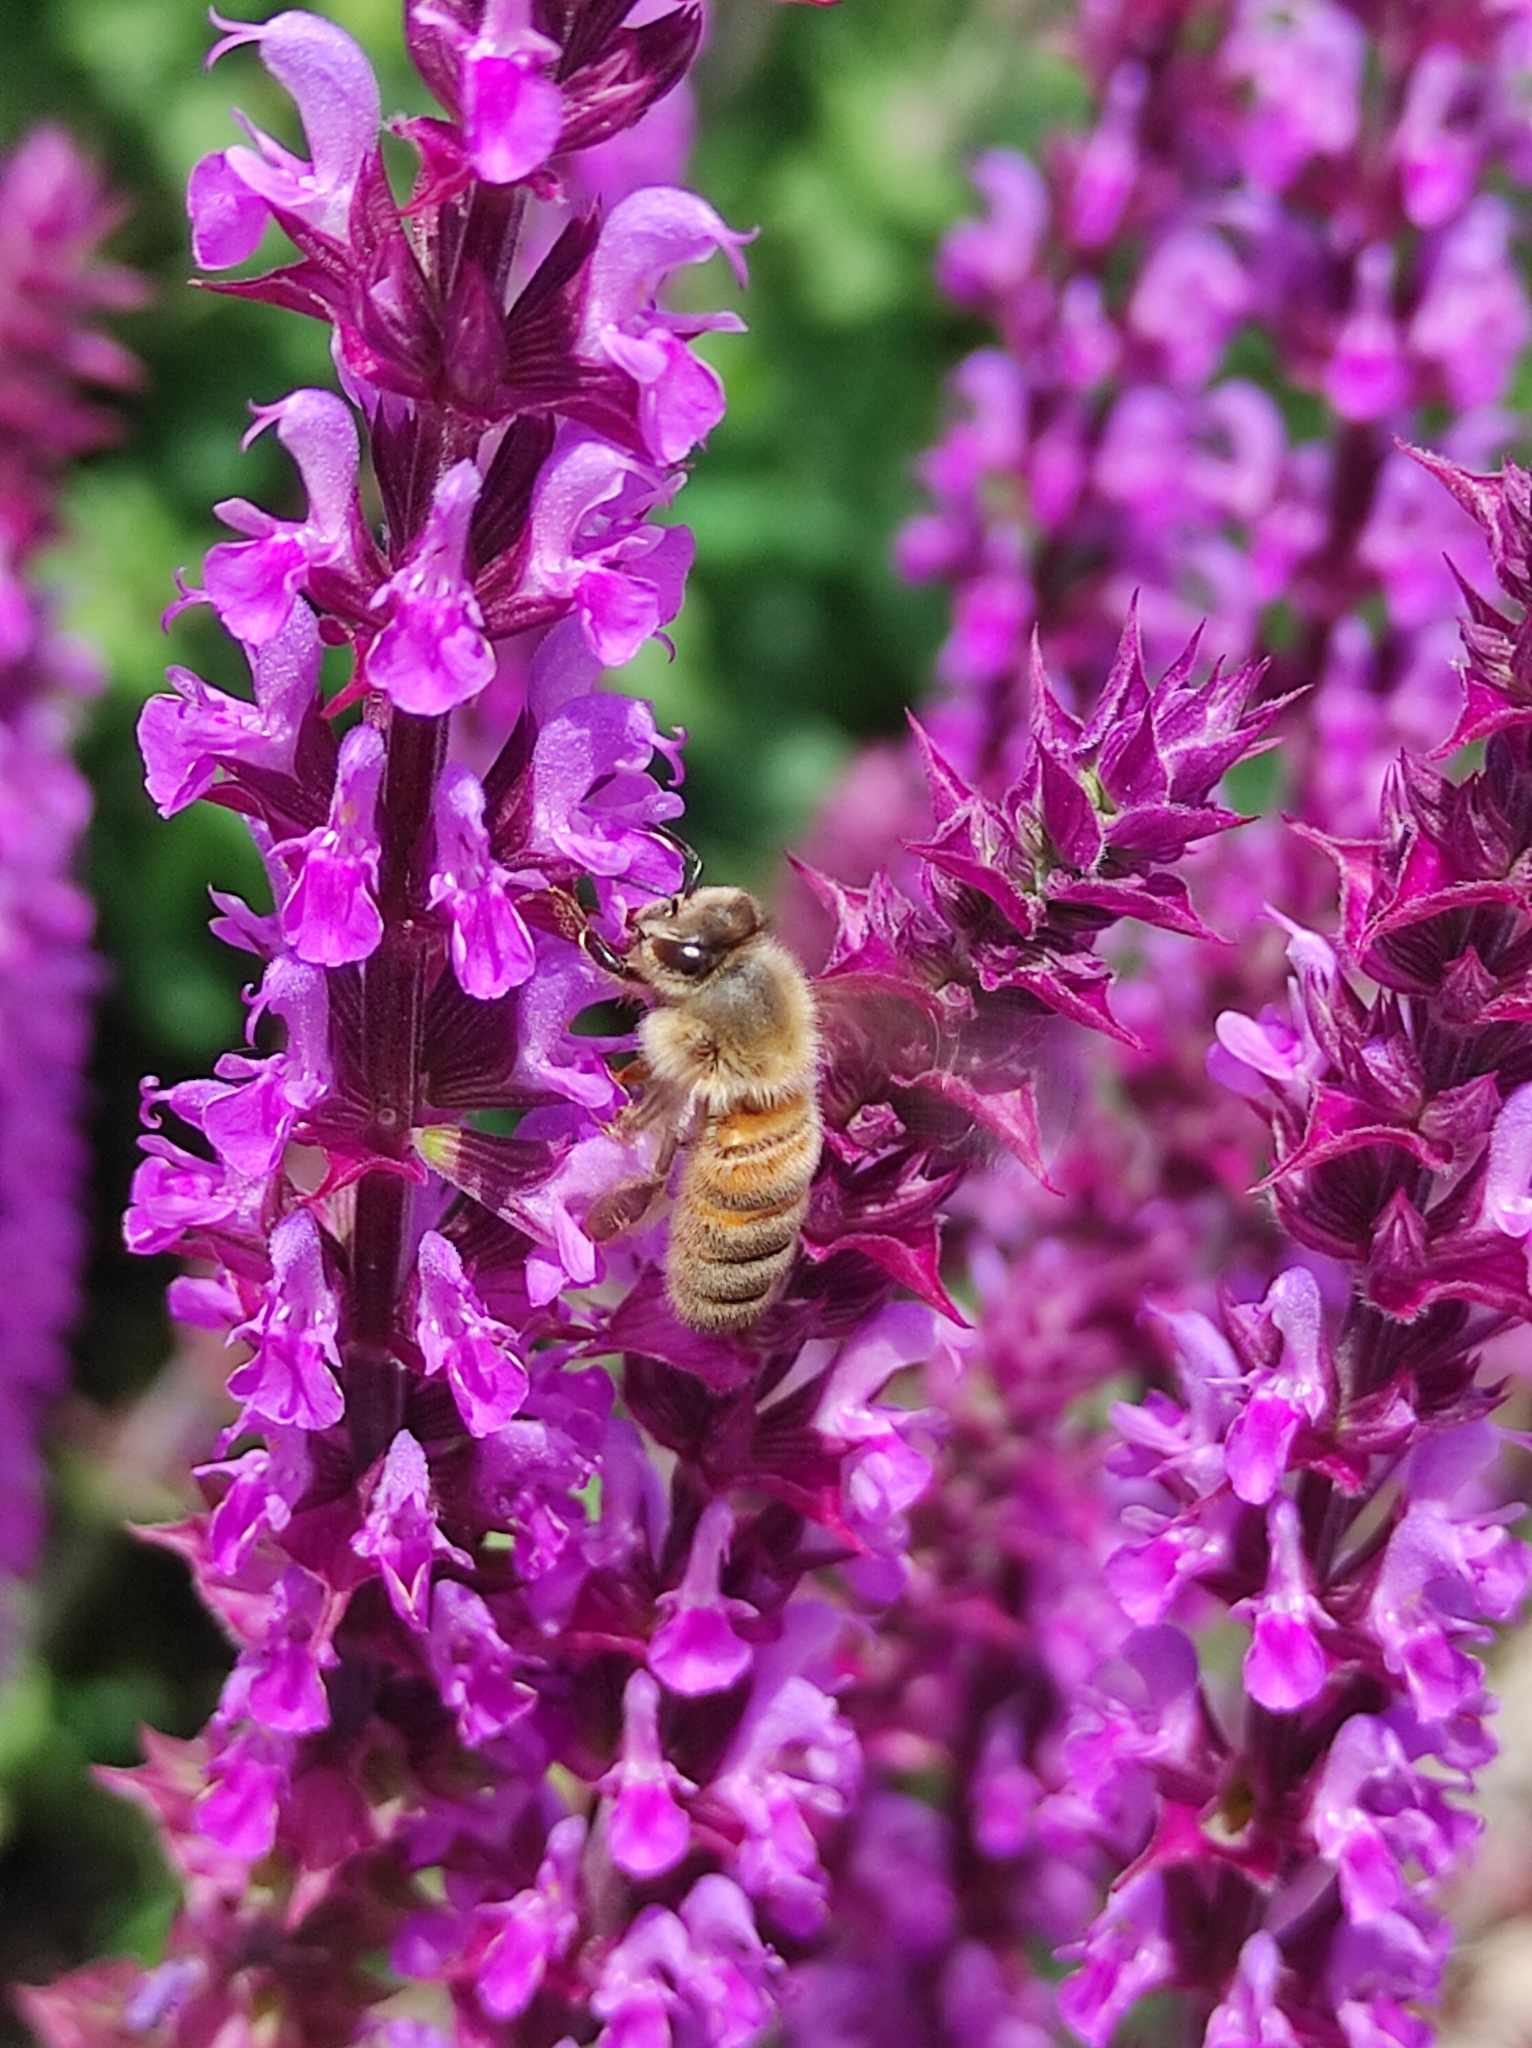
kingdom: Animalia
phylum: Arthropoda
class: Insecta
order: Hymenoptera
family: Apidae
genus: Apis
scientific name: Apis mellifera
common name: Honey bee
